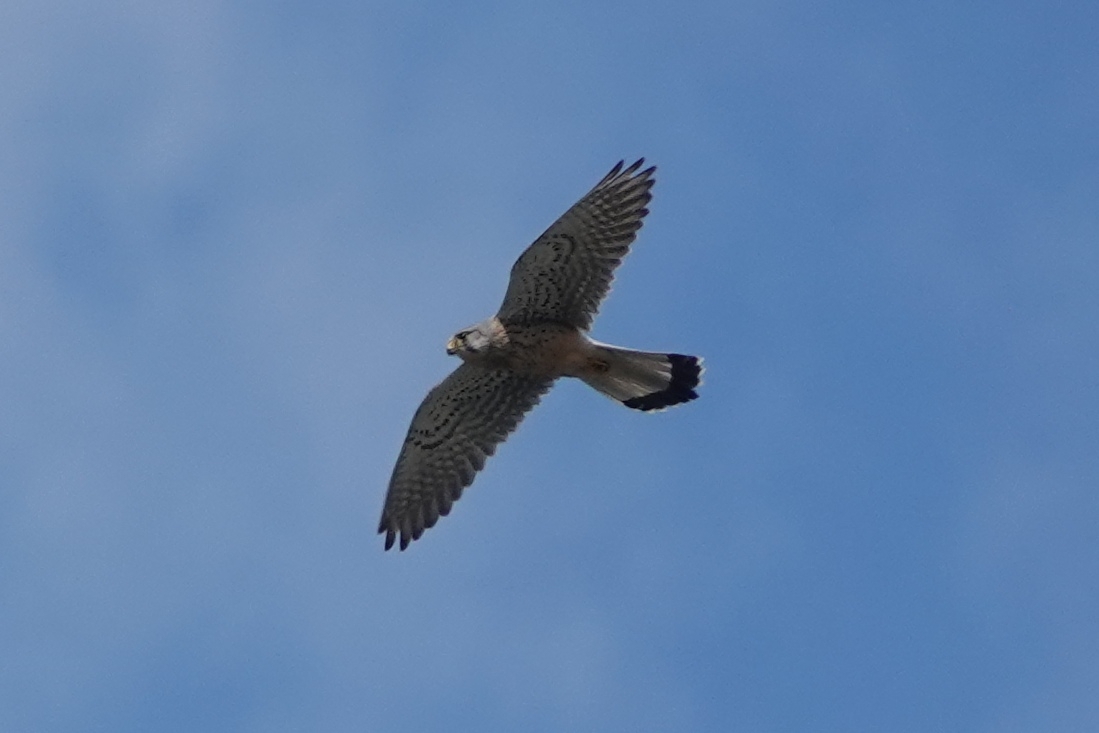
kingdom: Animalia
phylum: Chordata
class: Aves
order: Falconiformes
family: Falconidae
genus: Falco
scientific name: Falco tinnunculus
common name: Common kestrel
